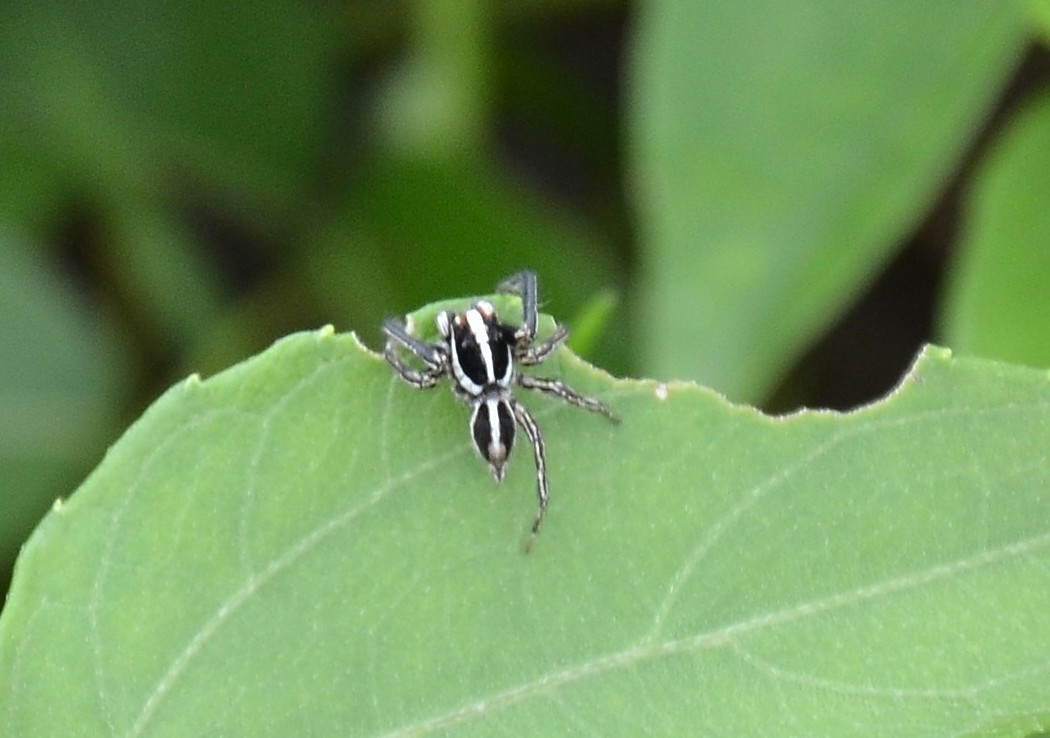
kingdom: Animalia
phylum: Arthropoda
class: Arachnida
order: Araneae
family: Salticidae
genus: Plexippus
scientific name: Plexippus paykulli
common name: Pantropical jumper
